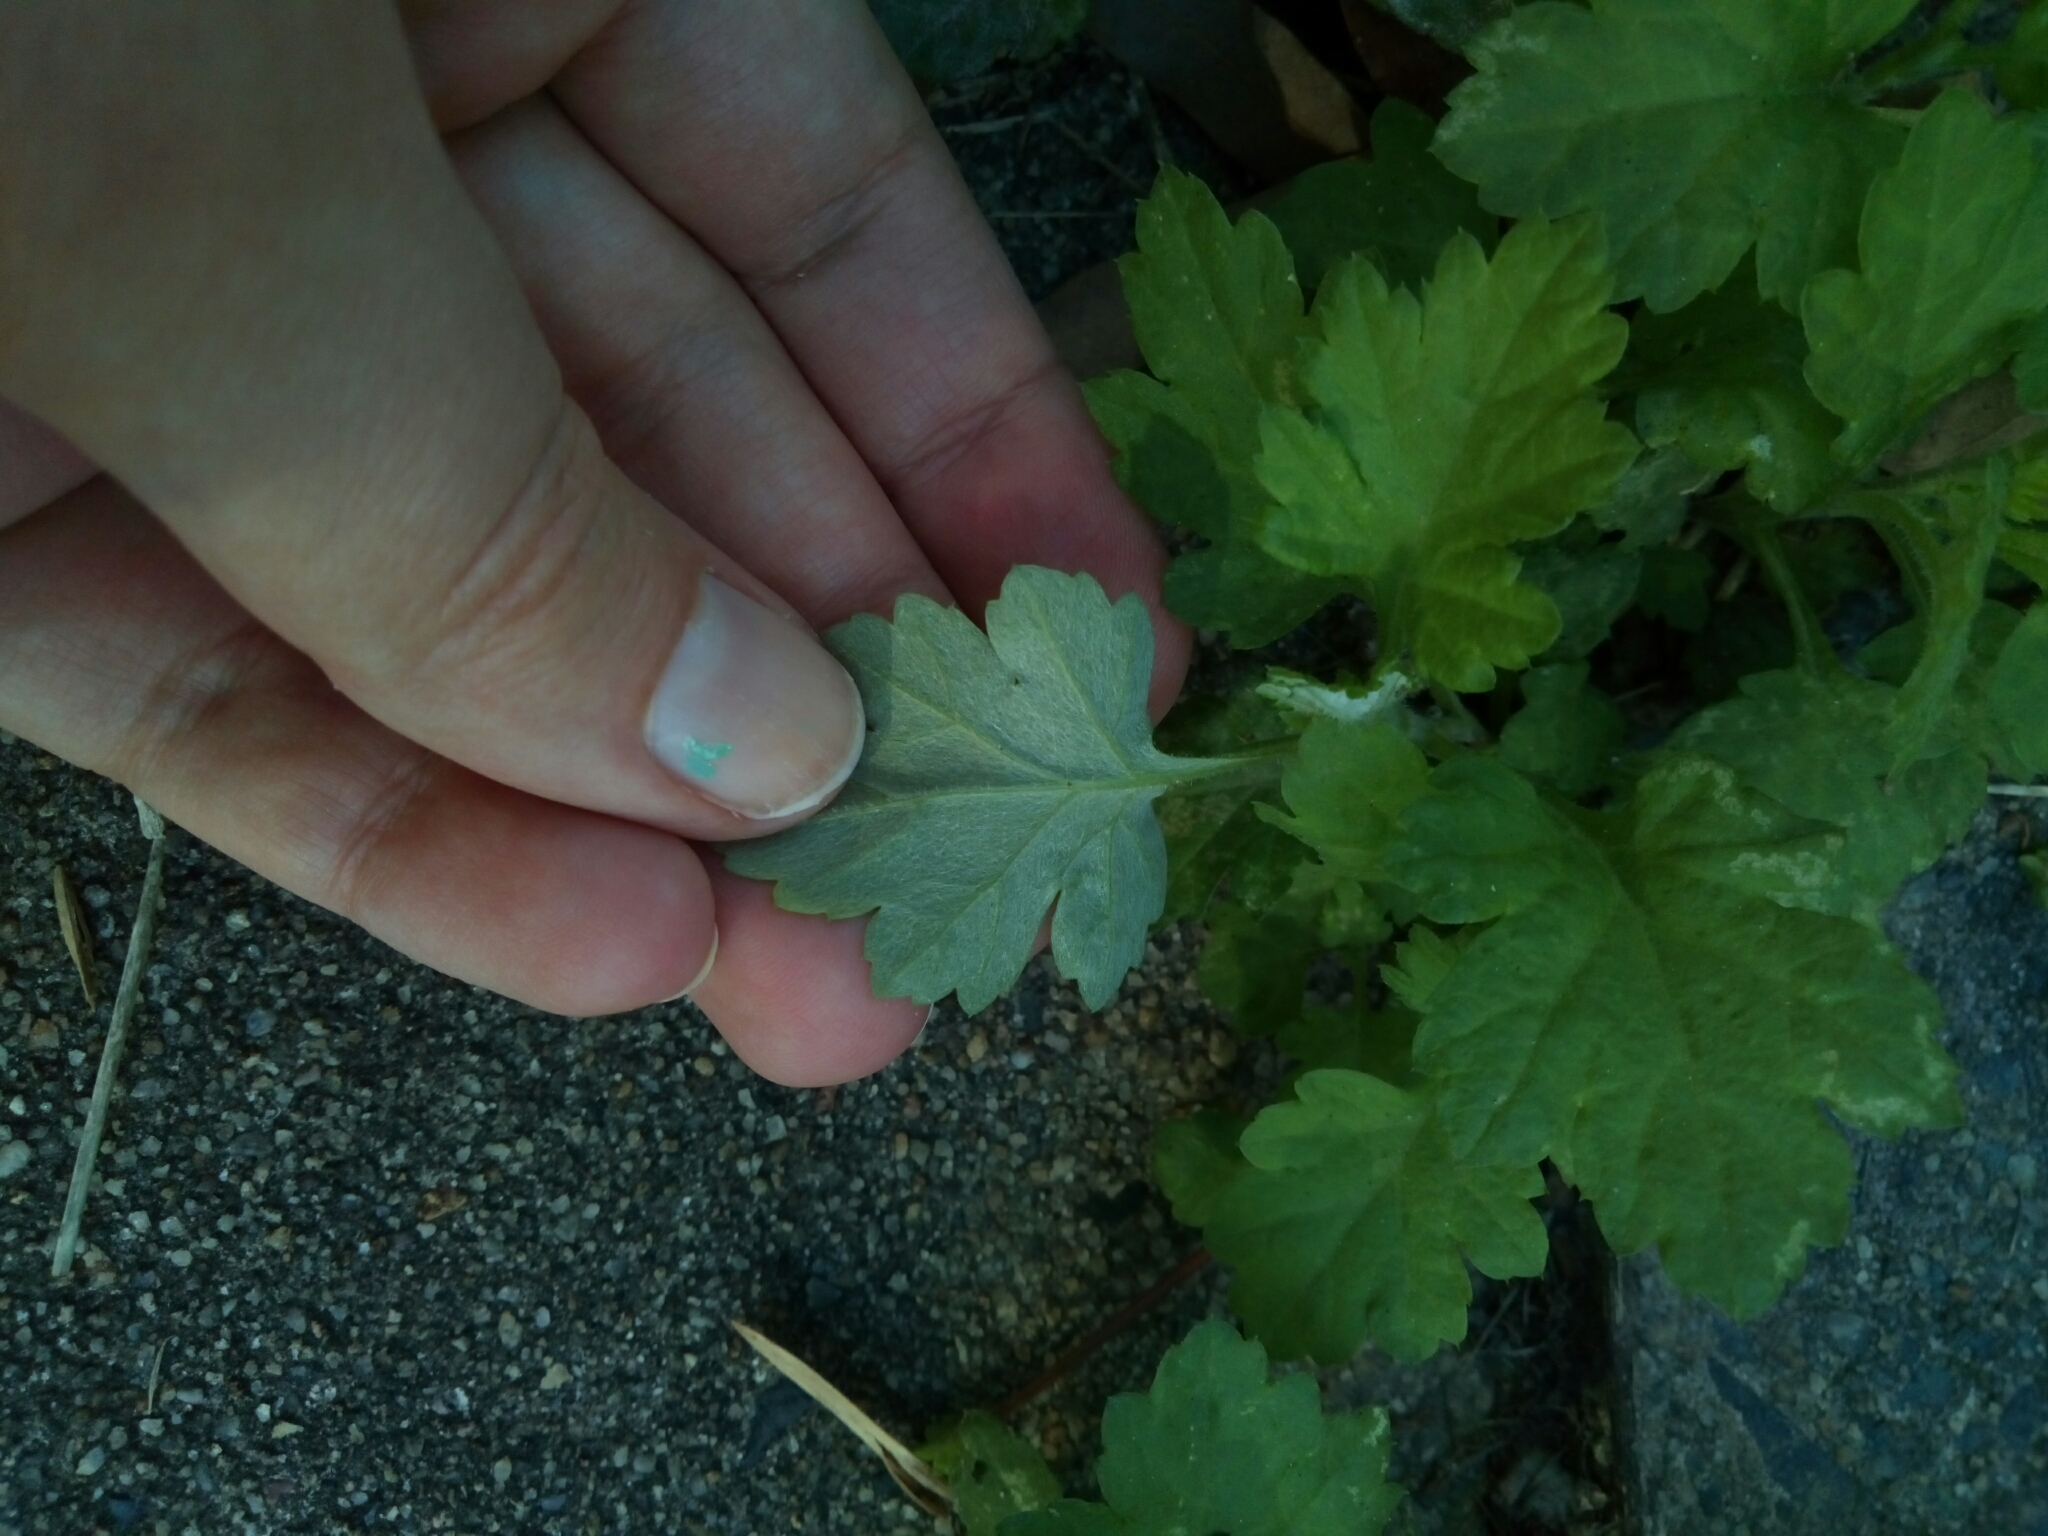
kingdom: Plantae
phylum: Tracheophyta
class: Magnoliopsida
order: Asterales
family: Asteraceae
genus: Artemisia
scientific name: Artemisia vulgaris
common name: Mugwort
